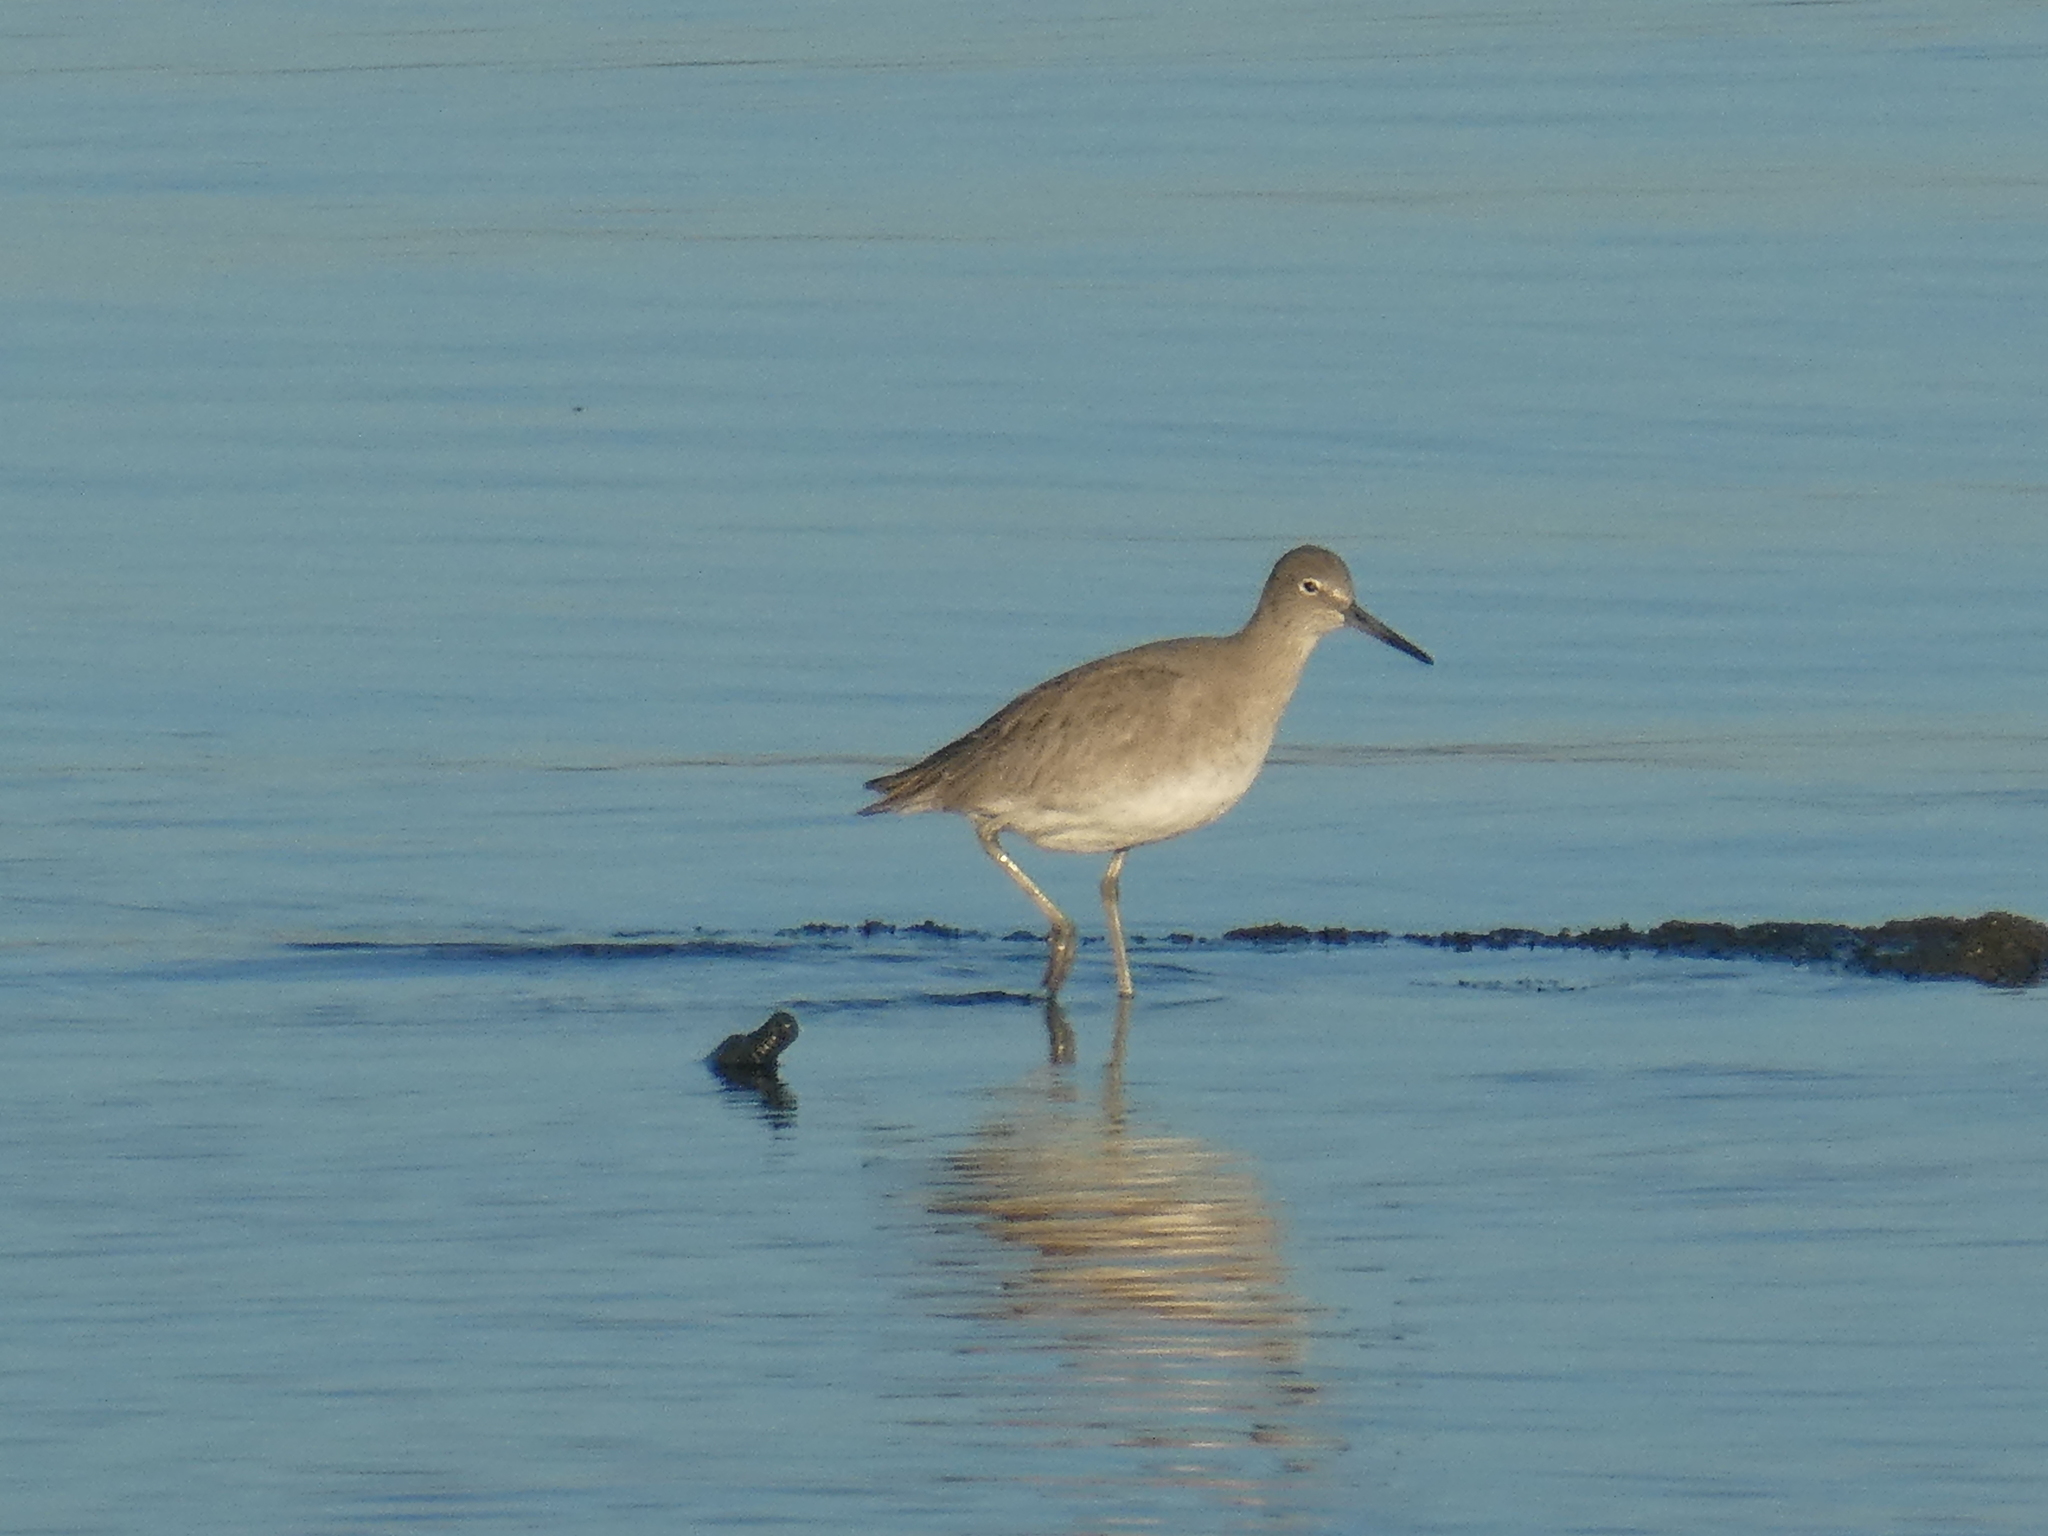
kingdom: Animalia
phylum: Chordata
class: Aves
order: Charadriiformes
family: Scolopacidae
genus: Tringa
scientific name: Tringa semipalmata
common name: Willet
